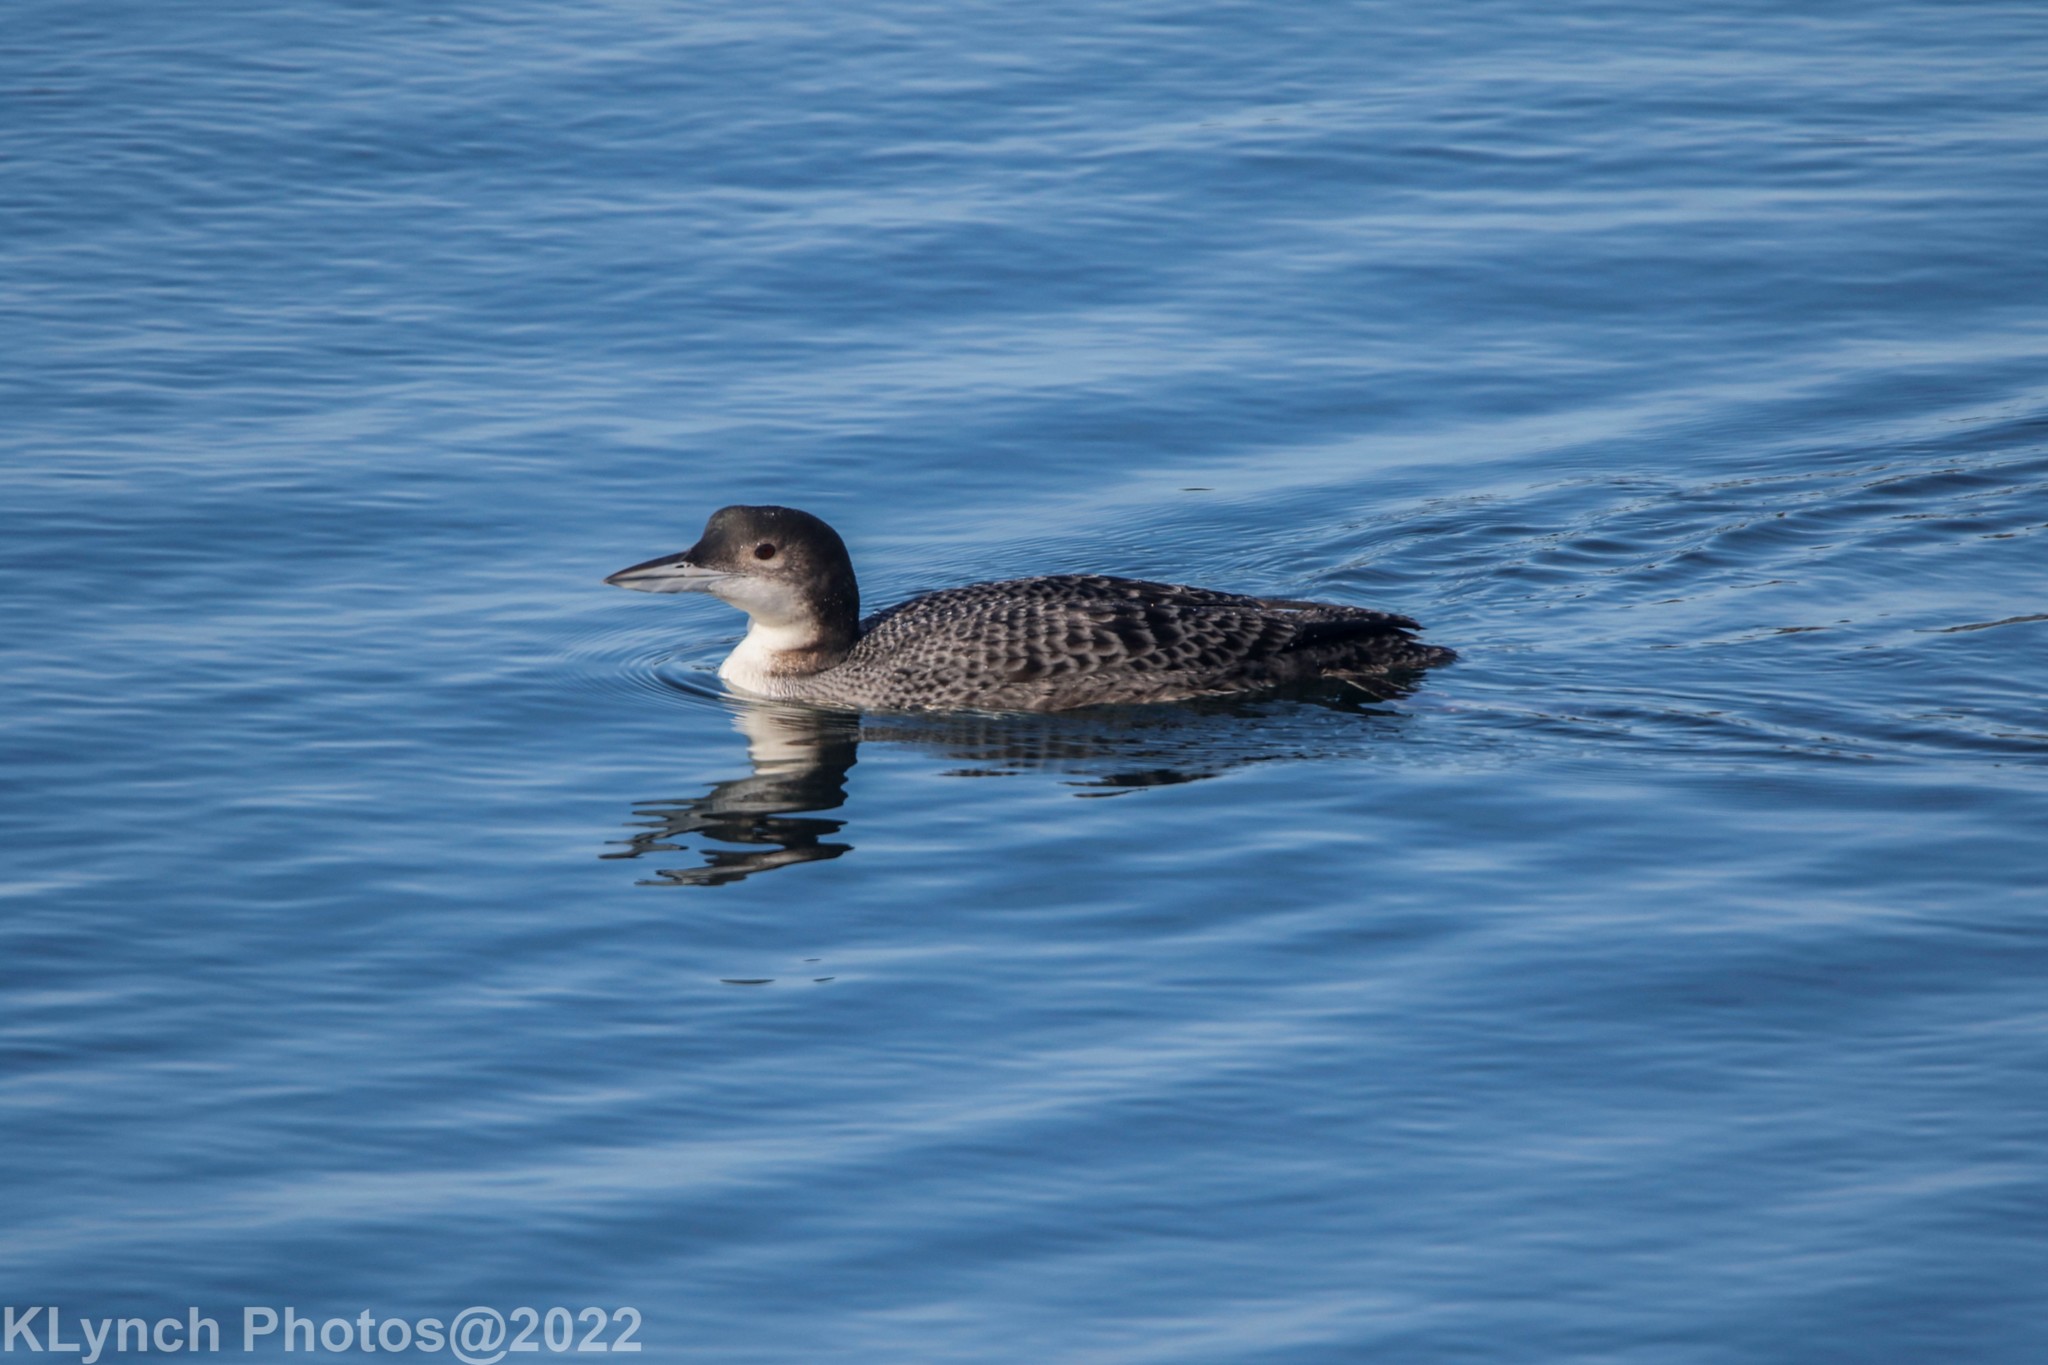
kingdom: Animalia
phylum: Chordata
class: Aves
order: Gaviiformes
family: Gaviidae
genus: Gavia
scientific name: Gavia immer
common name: Common loon
